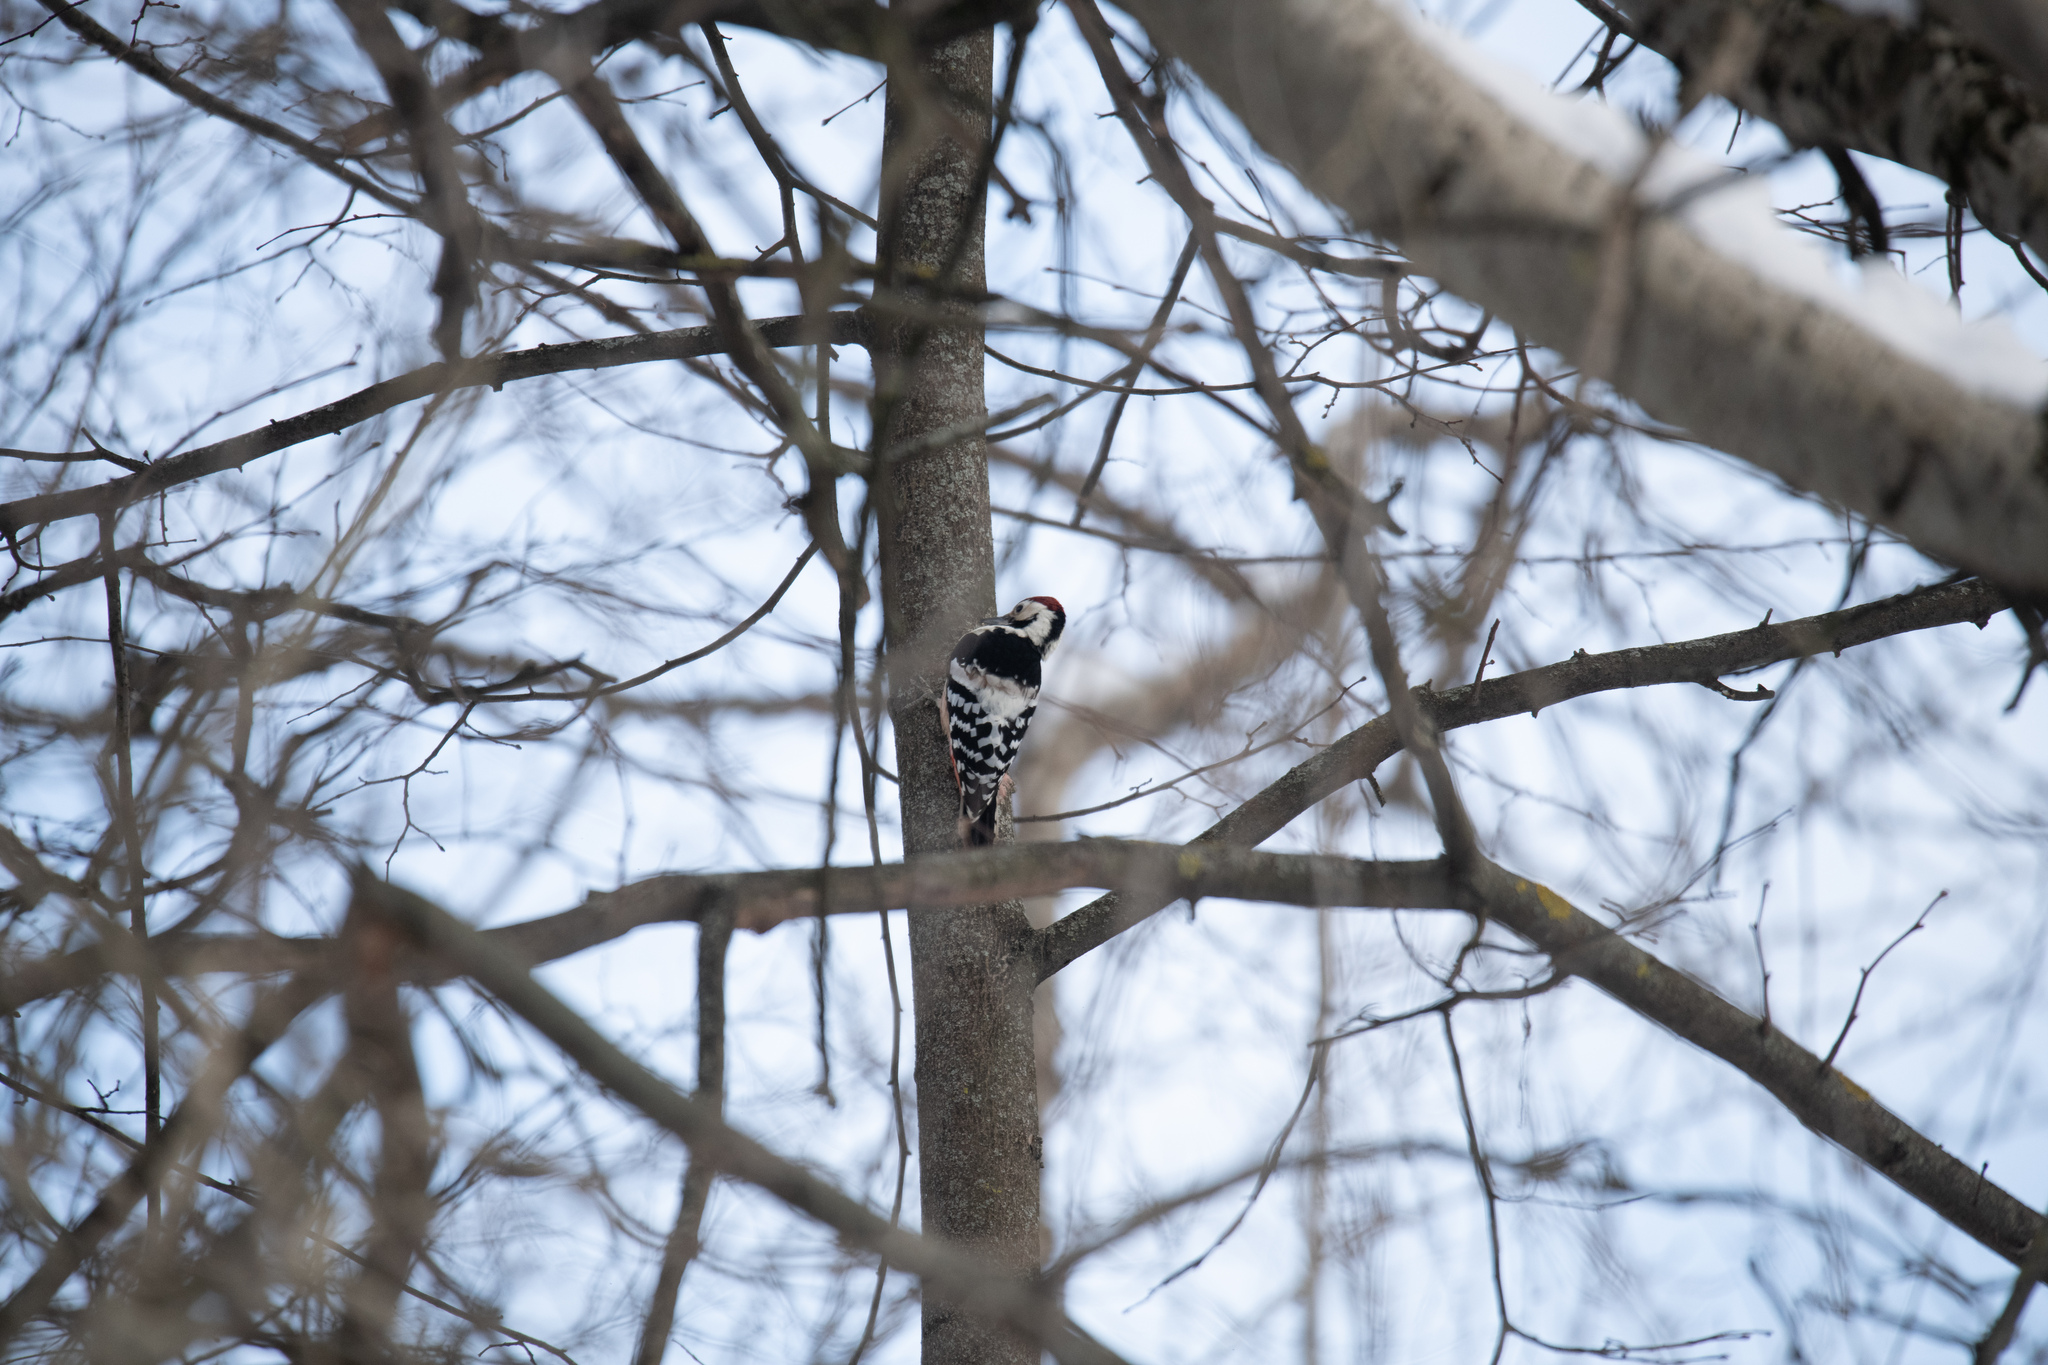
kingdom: Animalia
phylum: Chordata
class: Aves
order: Piciformes
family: Picidae
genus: Dendrocopos
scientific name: Dendrocopos leucotos
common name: White-backed woodpecker
